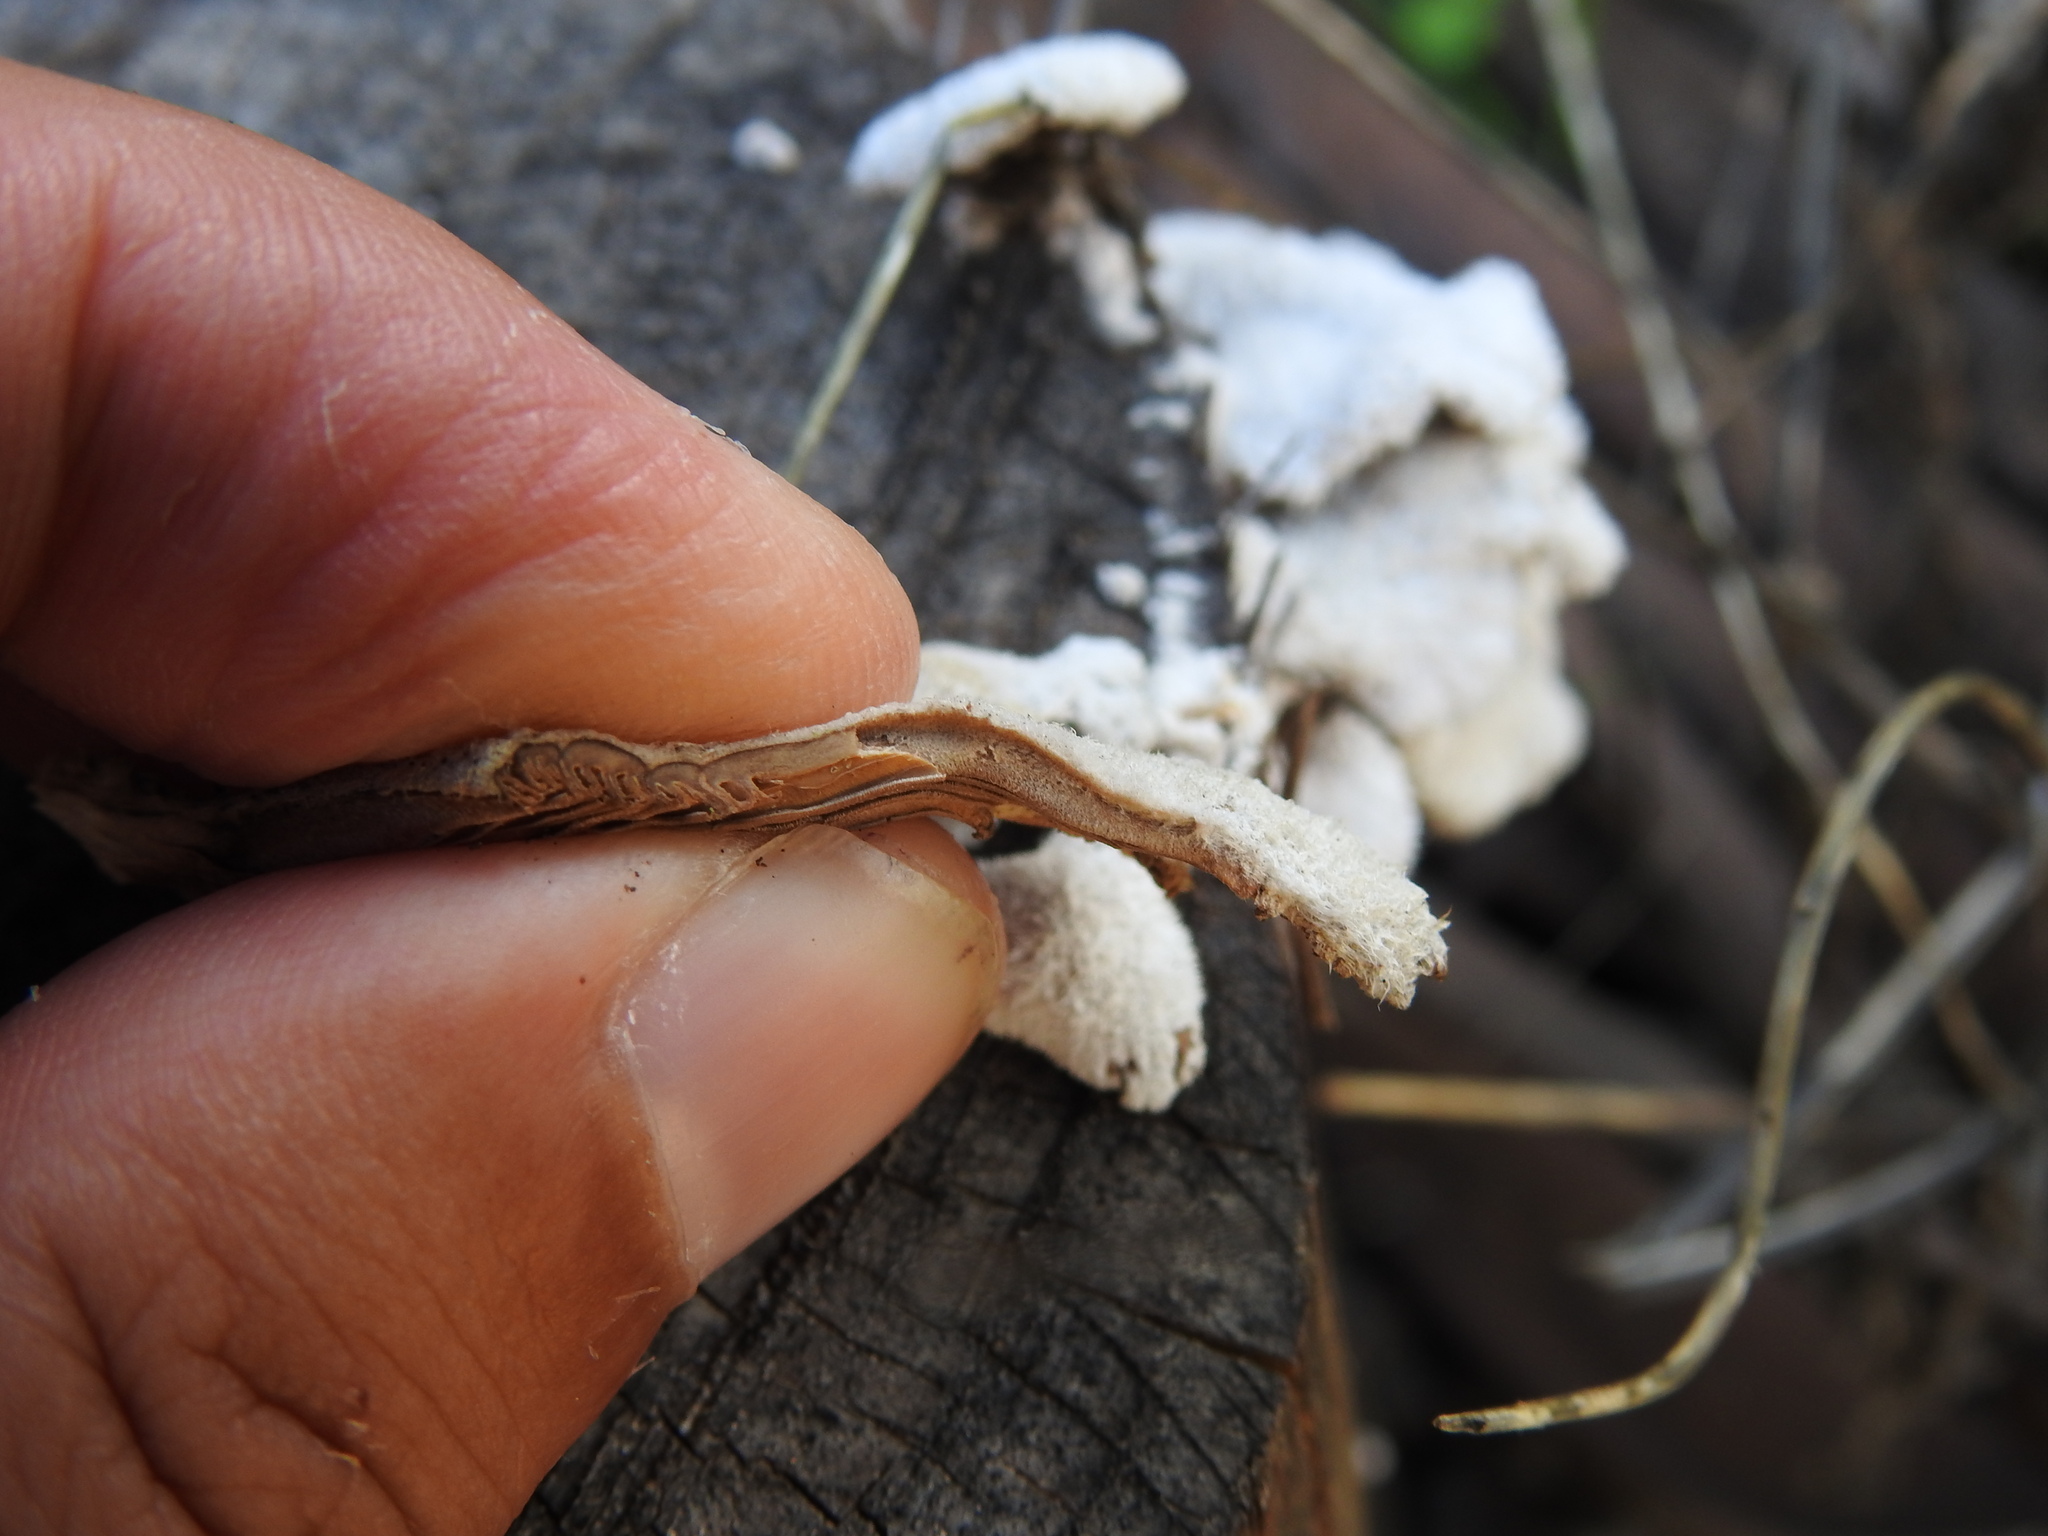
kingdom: Fungi
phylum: Basidiomycota
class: Agaricomycetes
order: Agaricales
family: Schizophyllaceae
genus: Schizophyllum
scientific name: Schizophyllum commune
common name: Common porecrust
